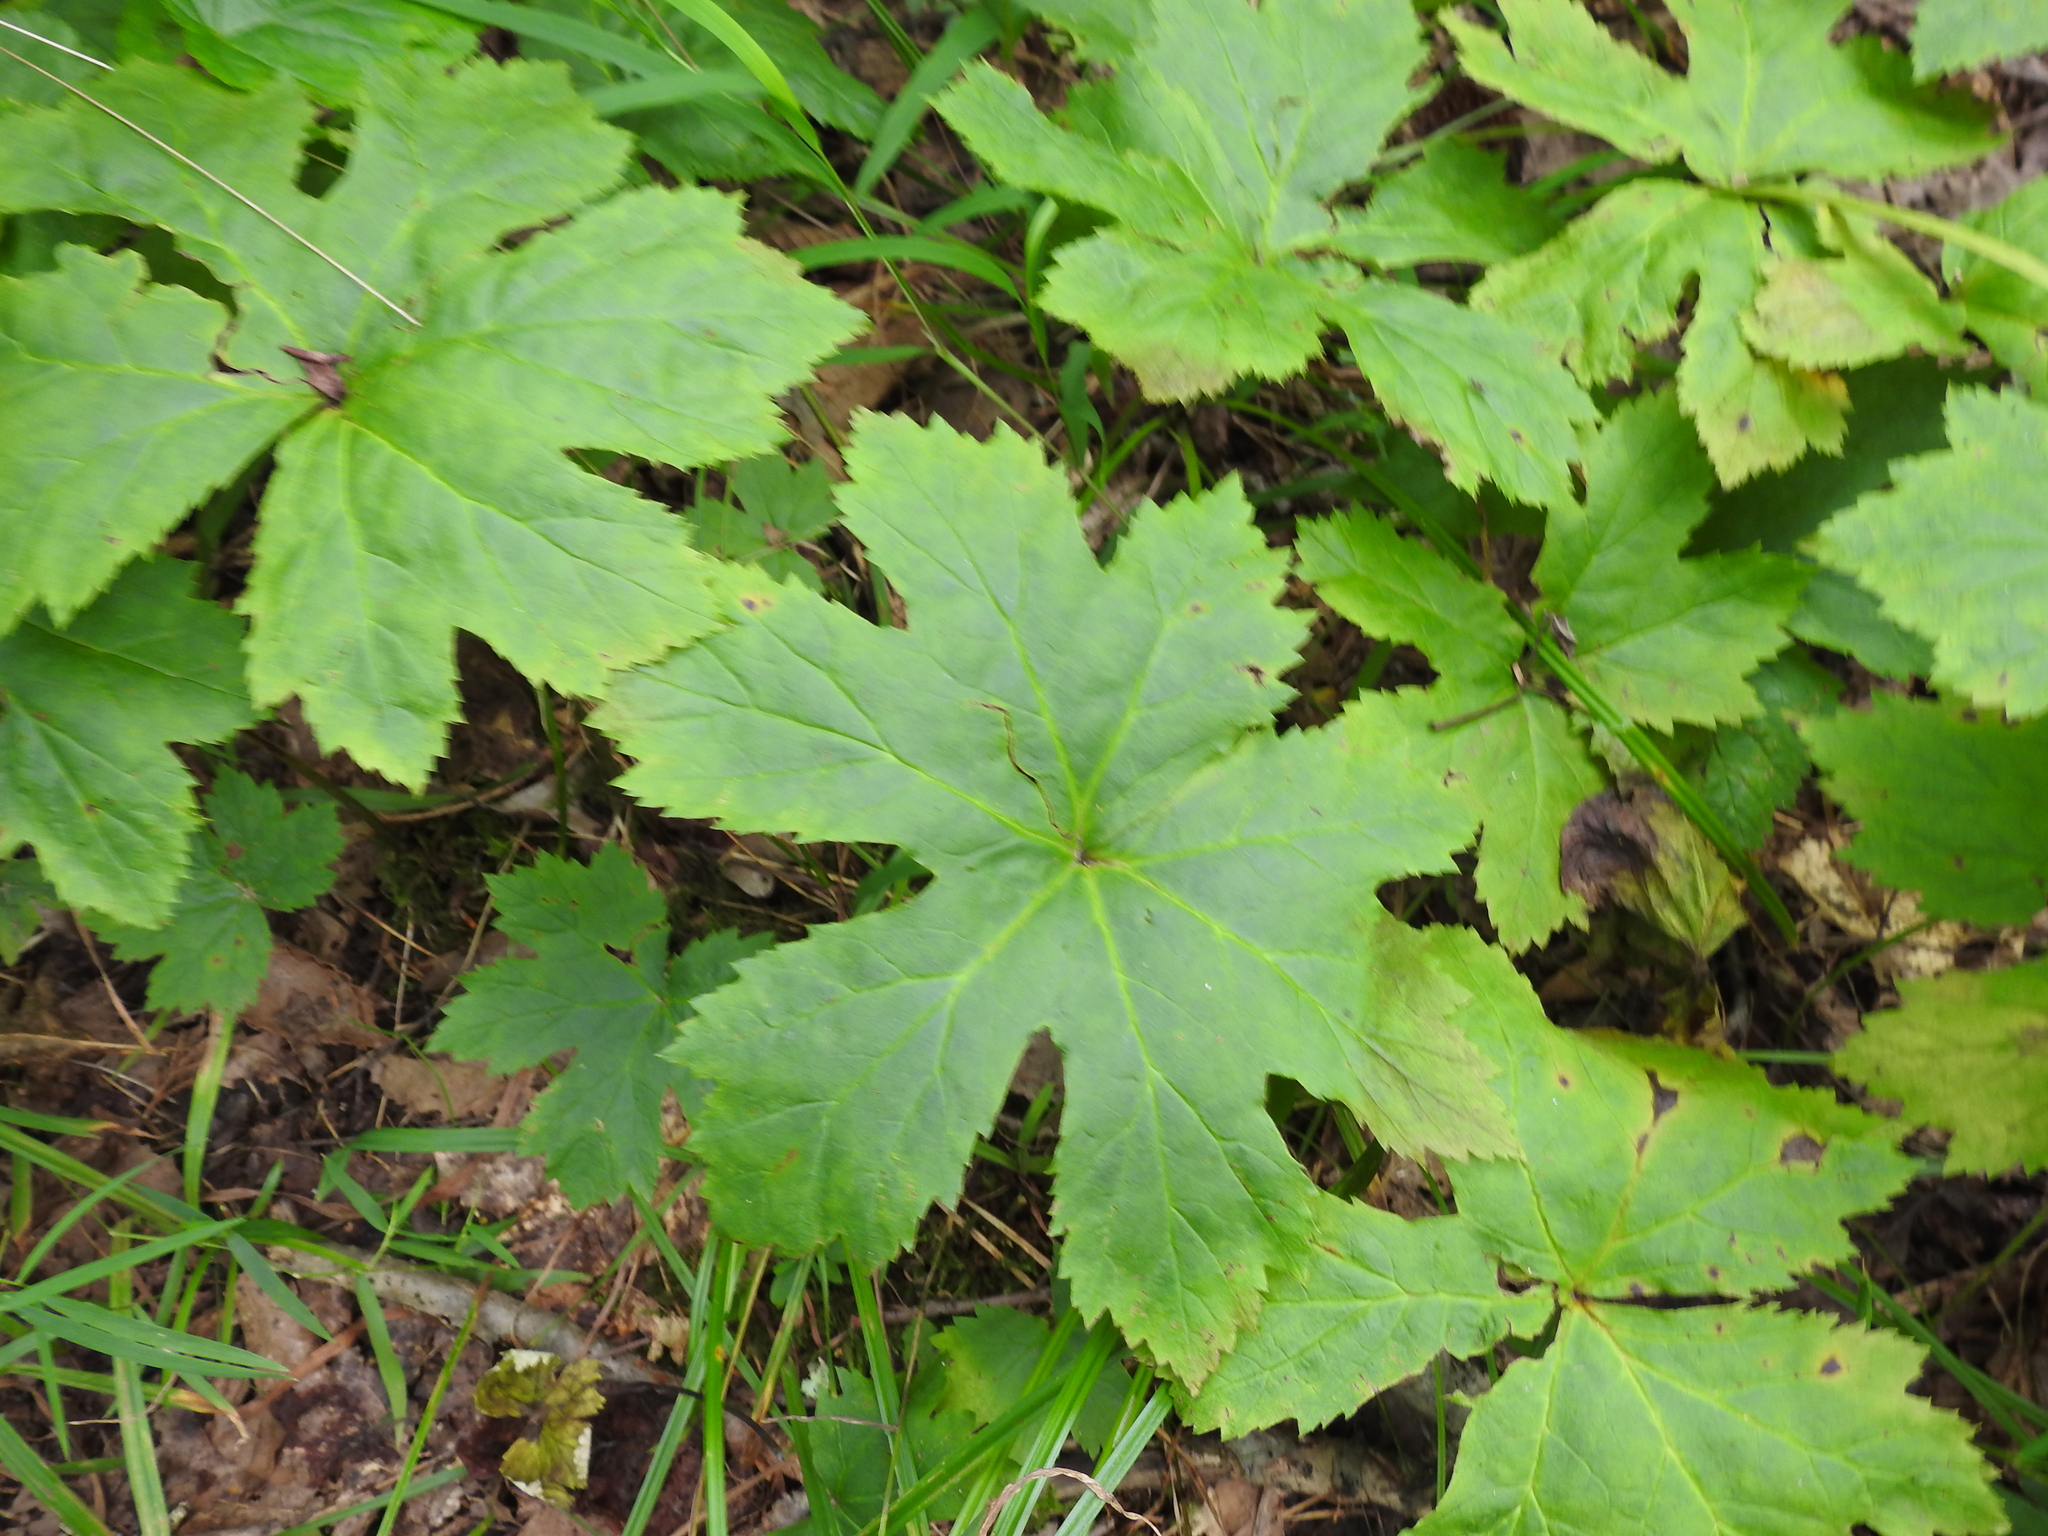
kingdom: Plantae
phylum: Tracheophyta
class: Magnoliopsida
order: Ranunculales
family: Ranunculaceae
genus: Hydrastis
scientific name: Hydrastis canadensis
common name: Goldenseal
